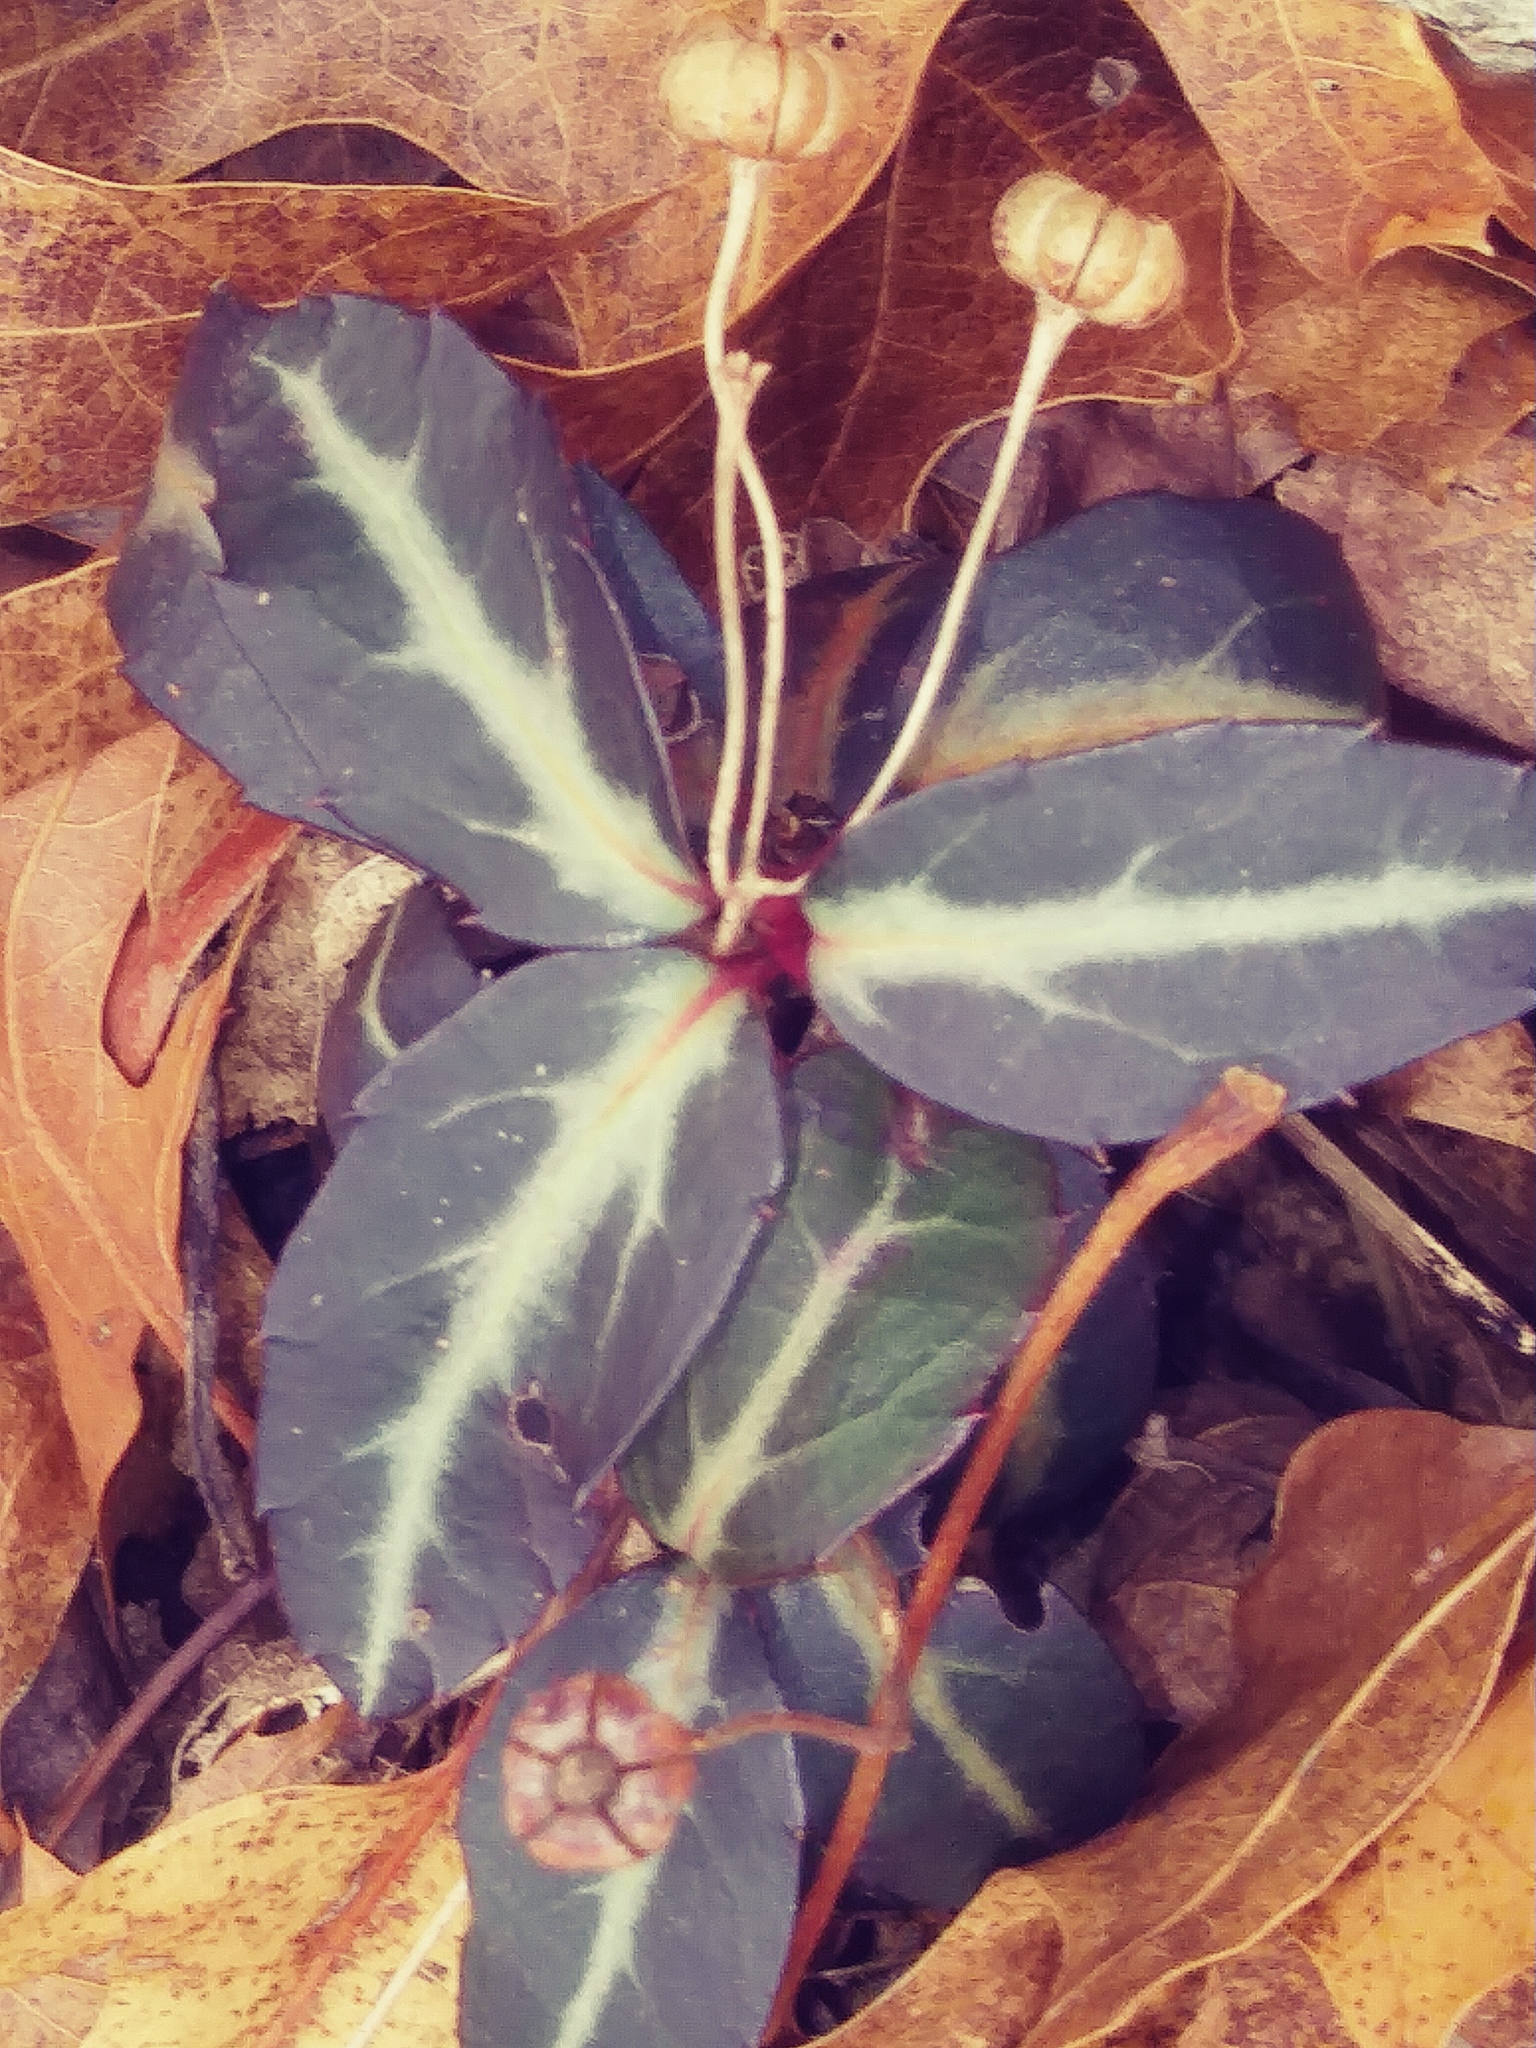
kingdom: Plantae
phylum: Tracheophyta
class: Magnoliopsida
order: Ericales
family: Ericaceae
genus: Chimaphila
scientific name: Chimaphila maculata
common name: Spotted pipsissewa
